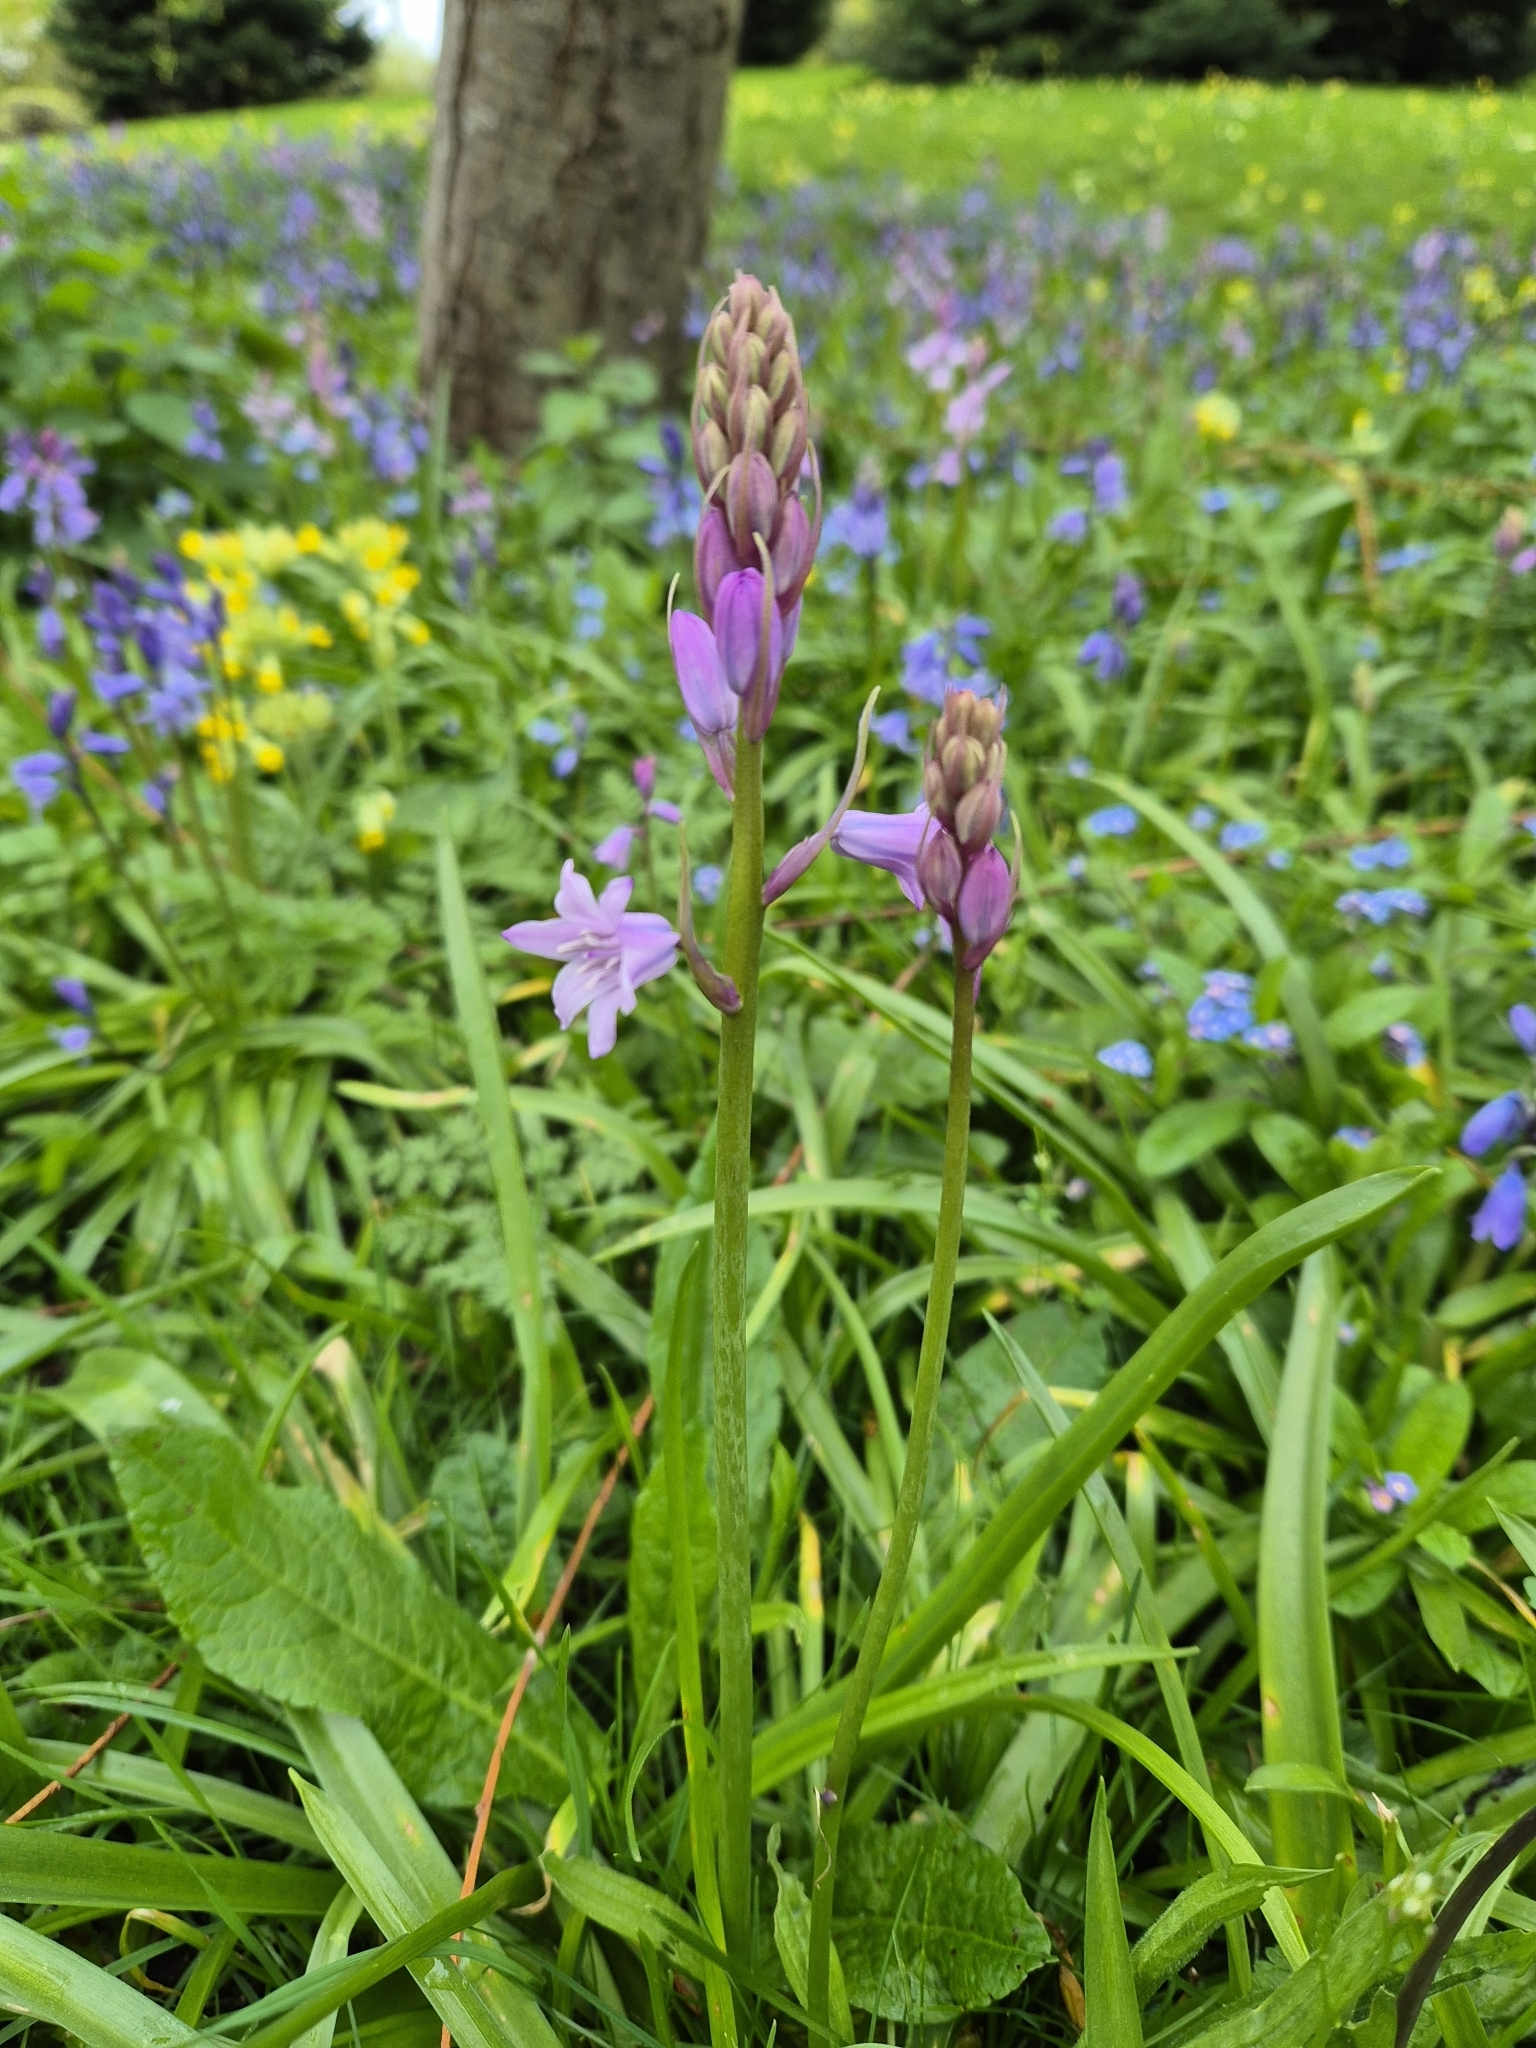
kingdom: Plantae
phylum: Tracheophyta
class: Liliopsida
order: Asparagales
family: Asparagaceae
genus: Hyacinthoides
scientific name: Hyacinthoides massartiana
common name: Hyacinthoides
